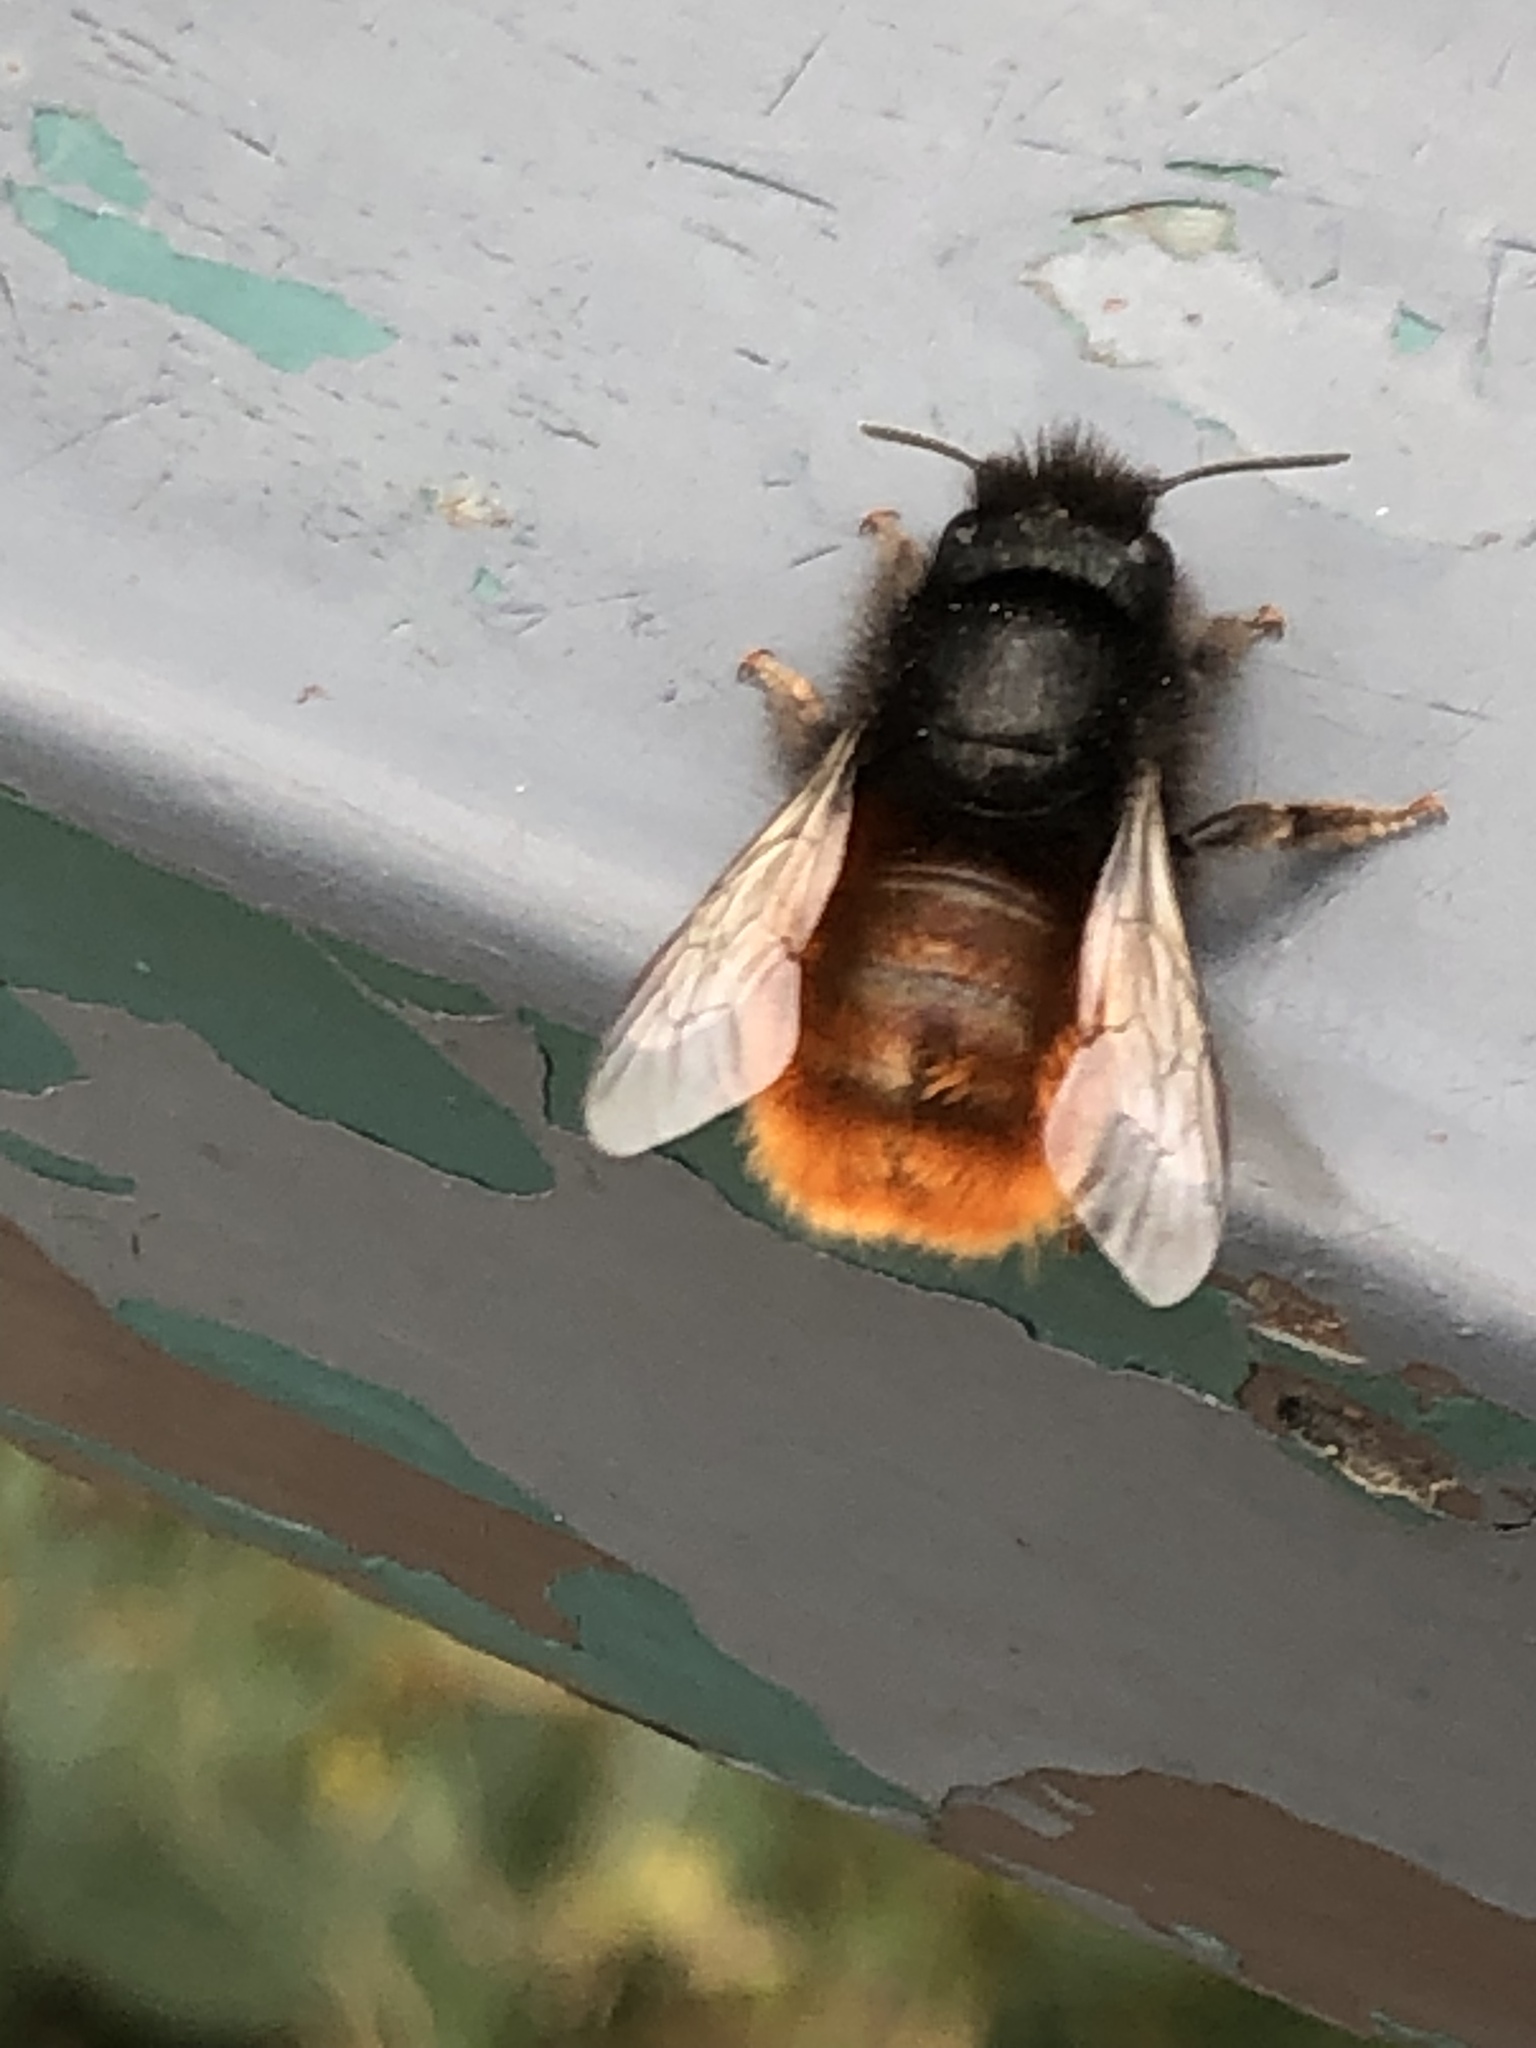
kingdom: Animalia
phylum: Arthropoda
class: Insecta
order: Hymenoptera
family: Megachilidae
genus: Osmia
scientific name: Osmia cornuta
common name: Mason bee
